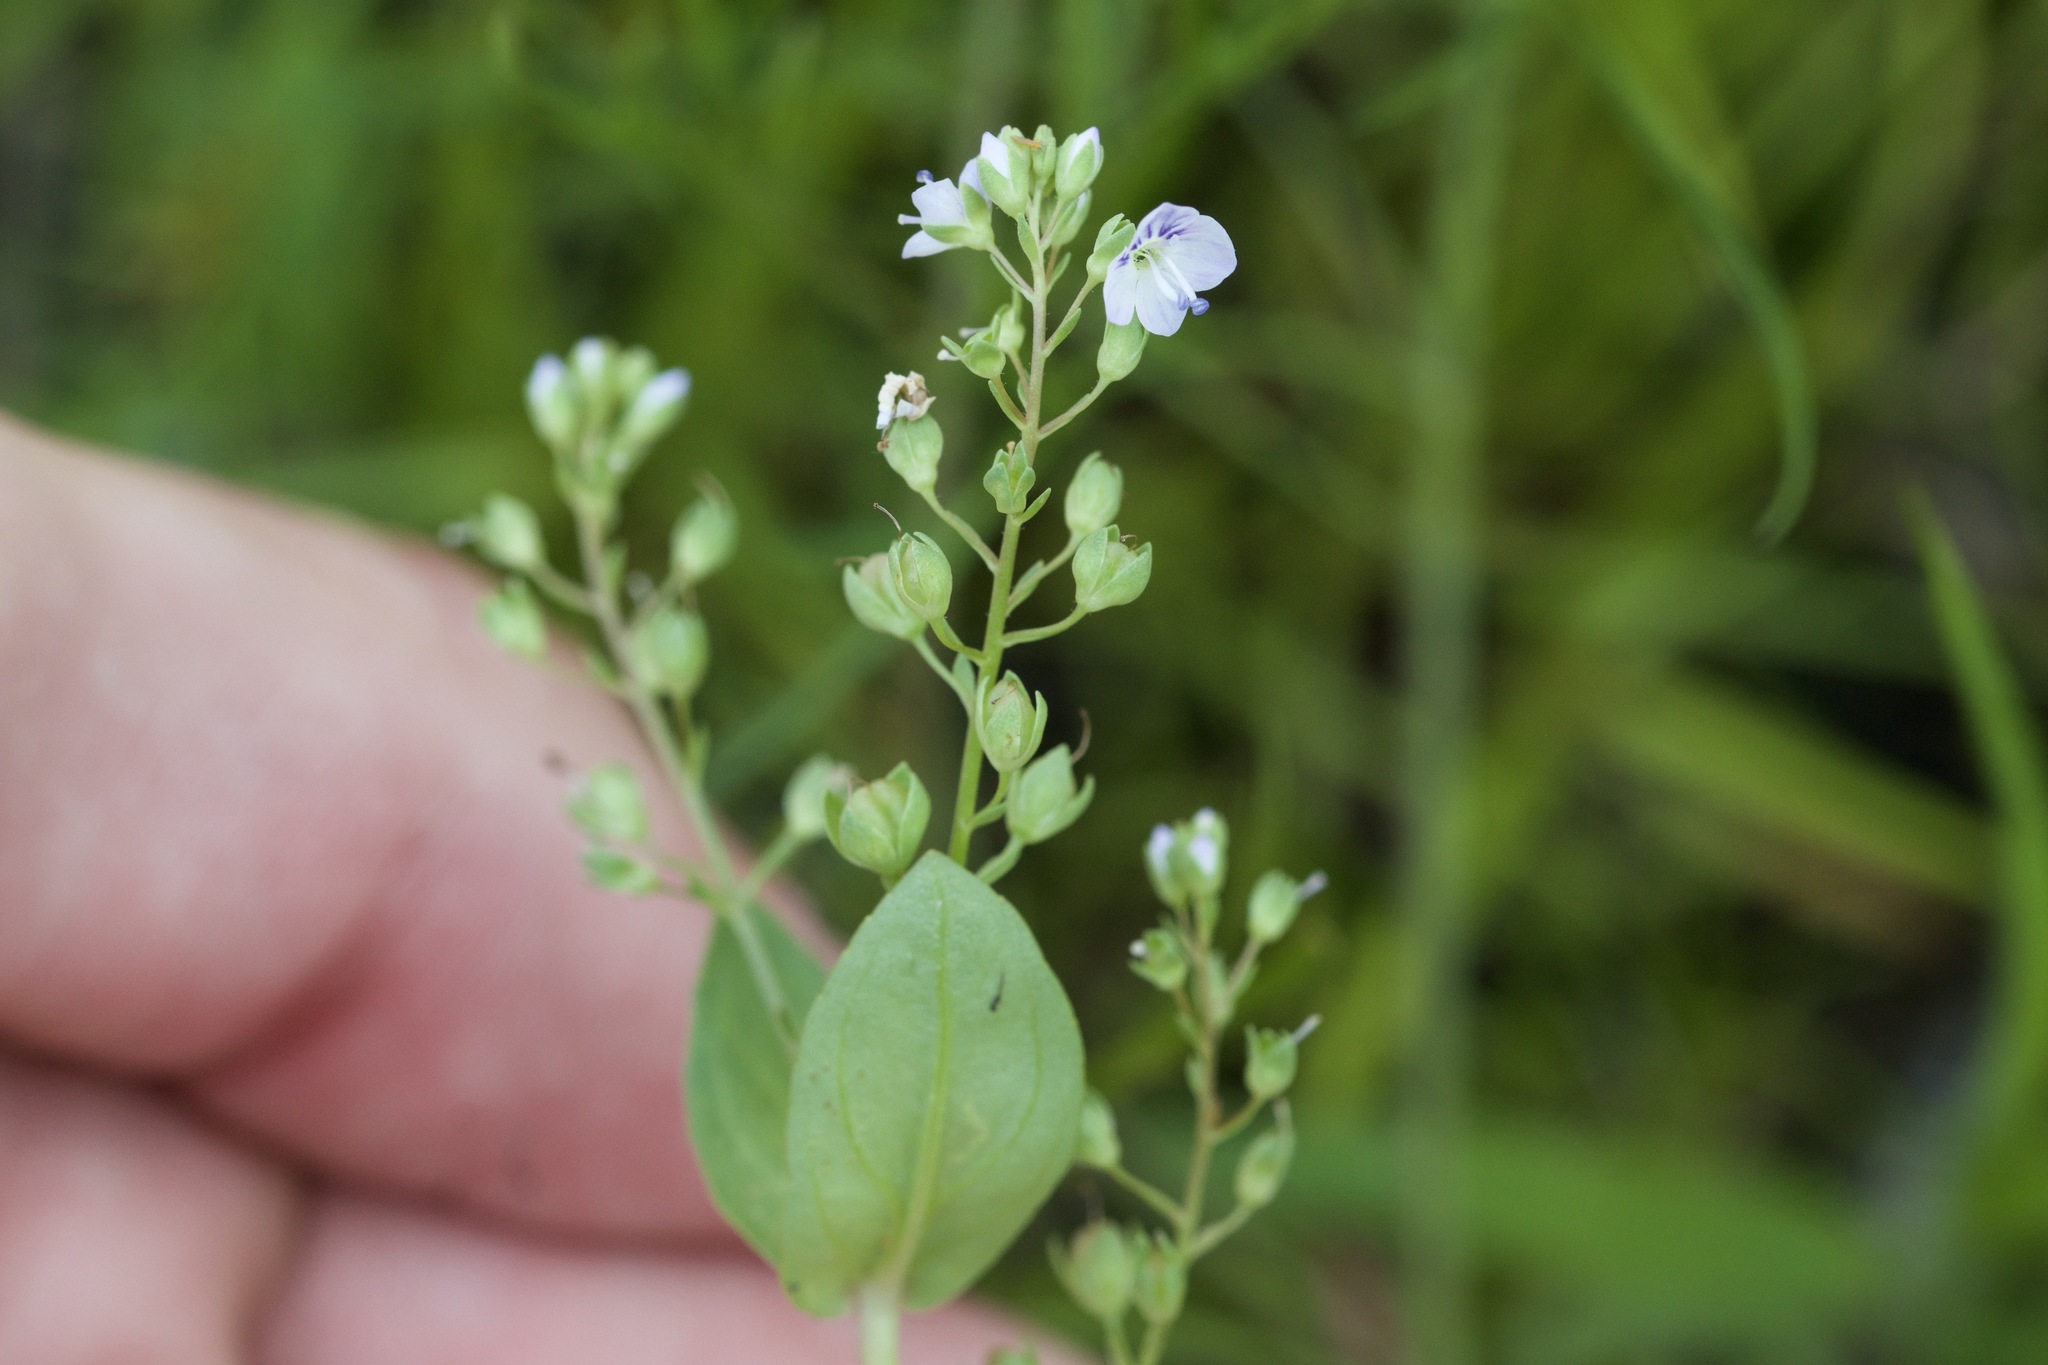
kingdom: Plantae
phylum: Tracheophyta
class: Magnoliopsida
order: Lamiales
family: Plantaginaceae
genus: Veronica
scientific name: Veronica anagallis-aquatica
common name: Water speedwell
